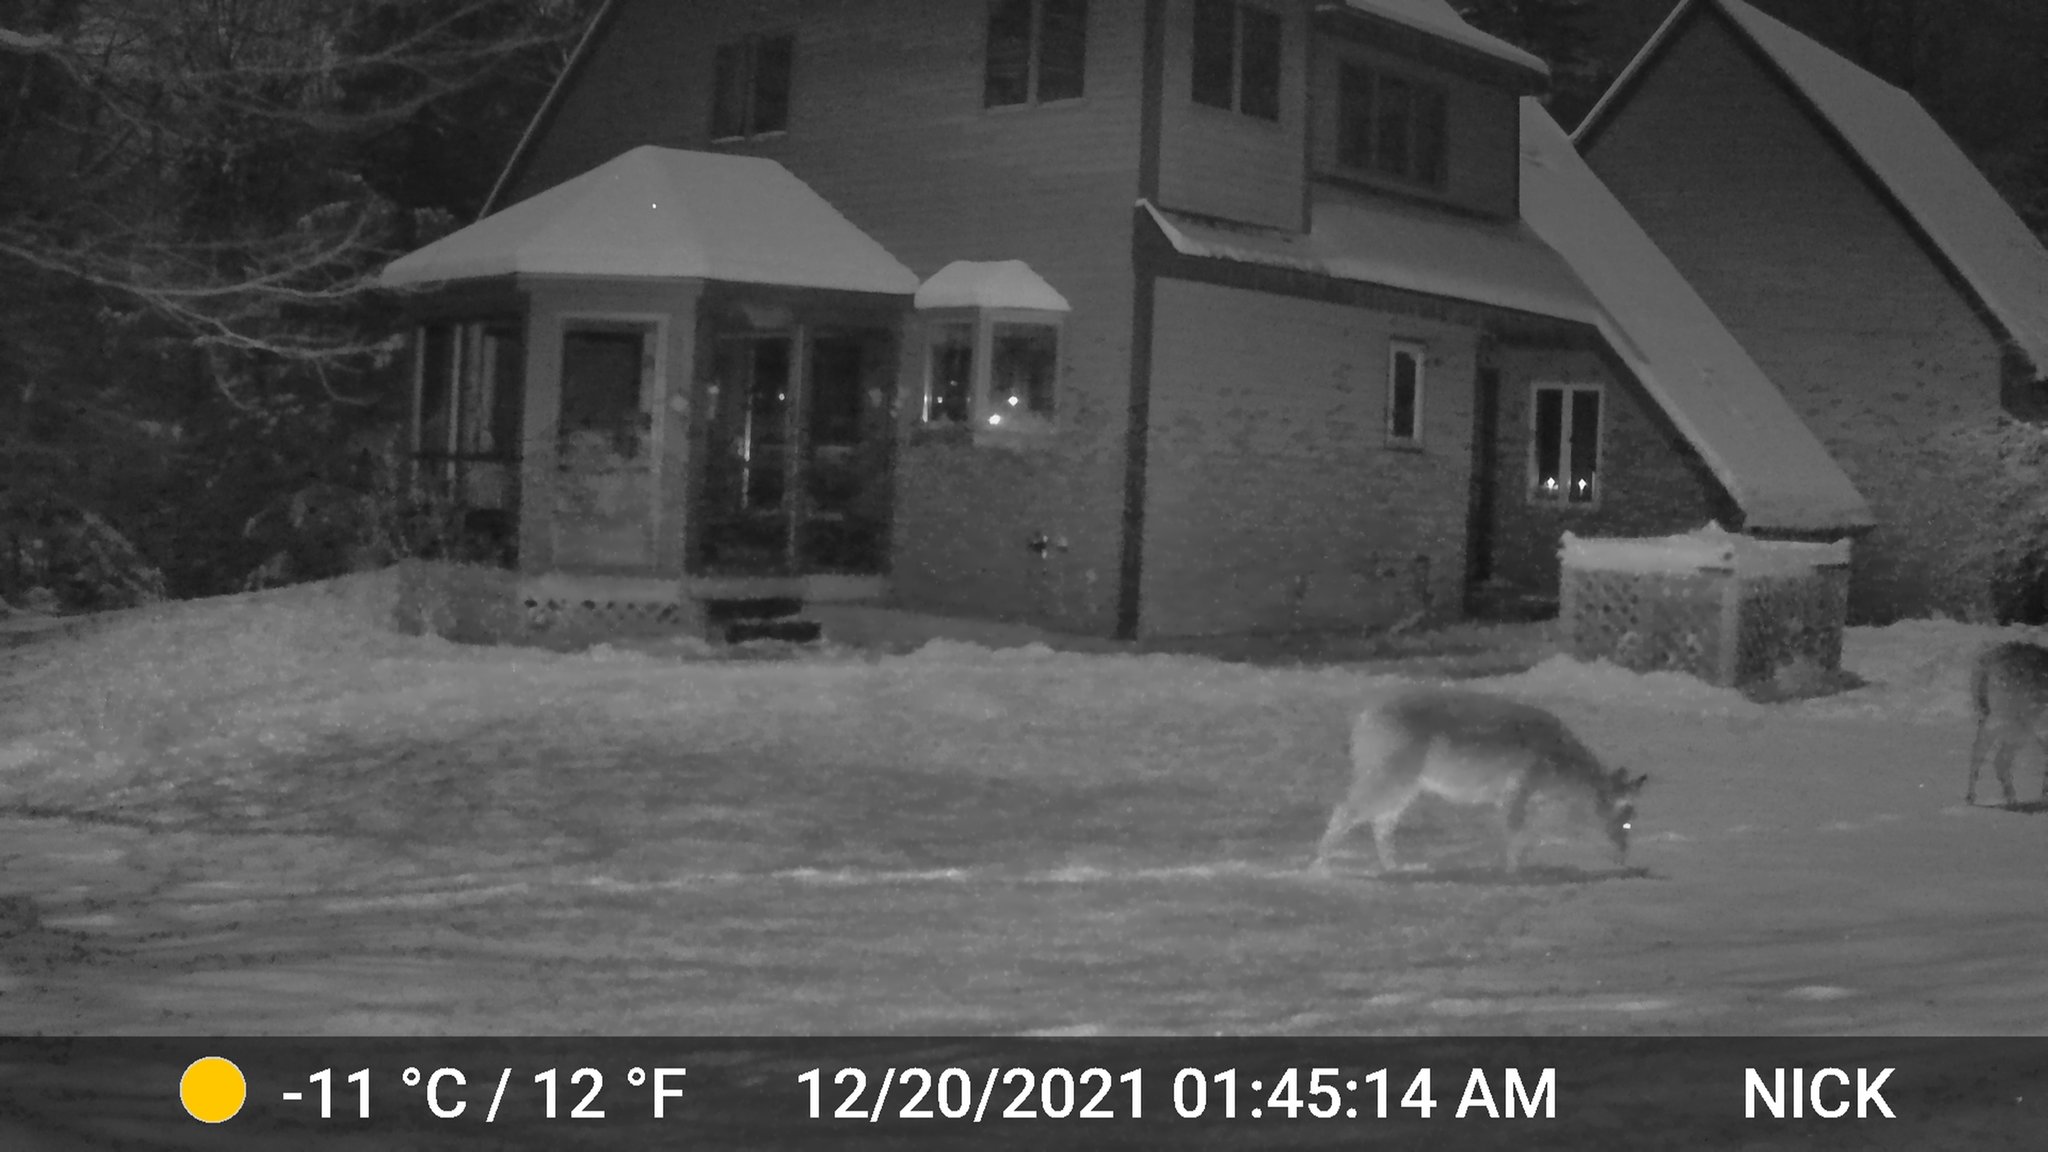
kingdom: Animalia
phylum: Chordata
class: Mammalia
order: Artiodactyla
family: Cervidae
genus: Odocoileus
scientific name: Odocoileus virginianus
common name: White-tailed deer
